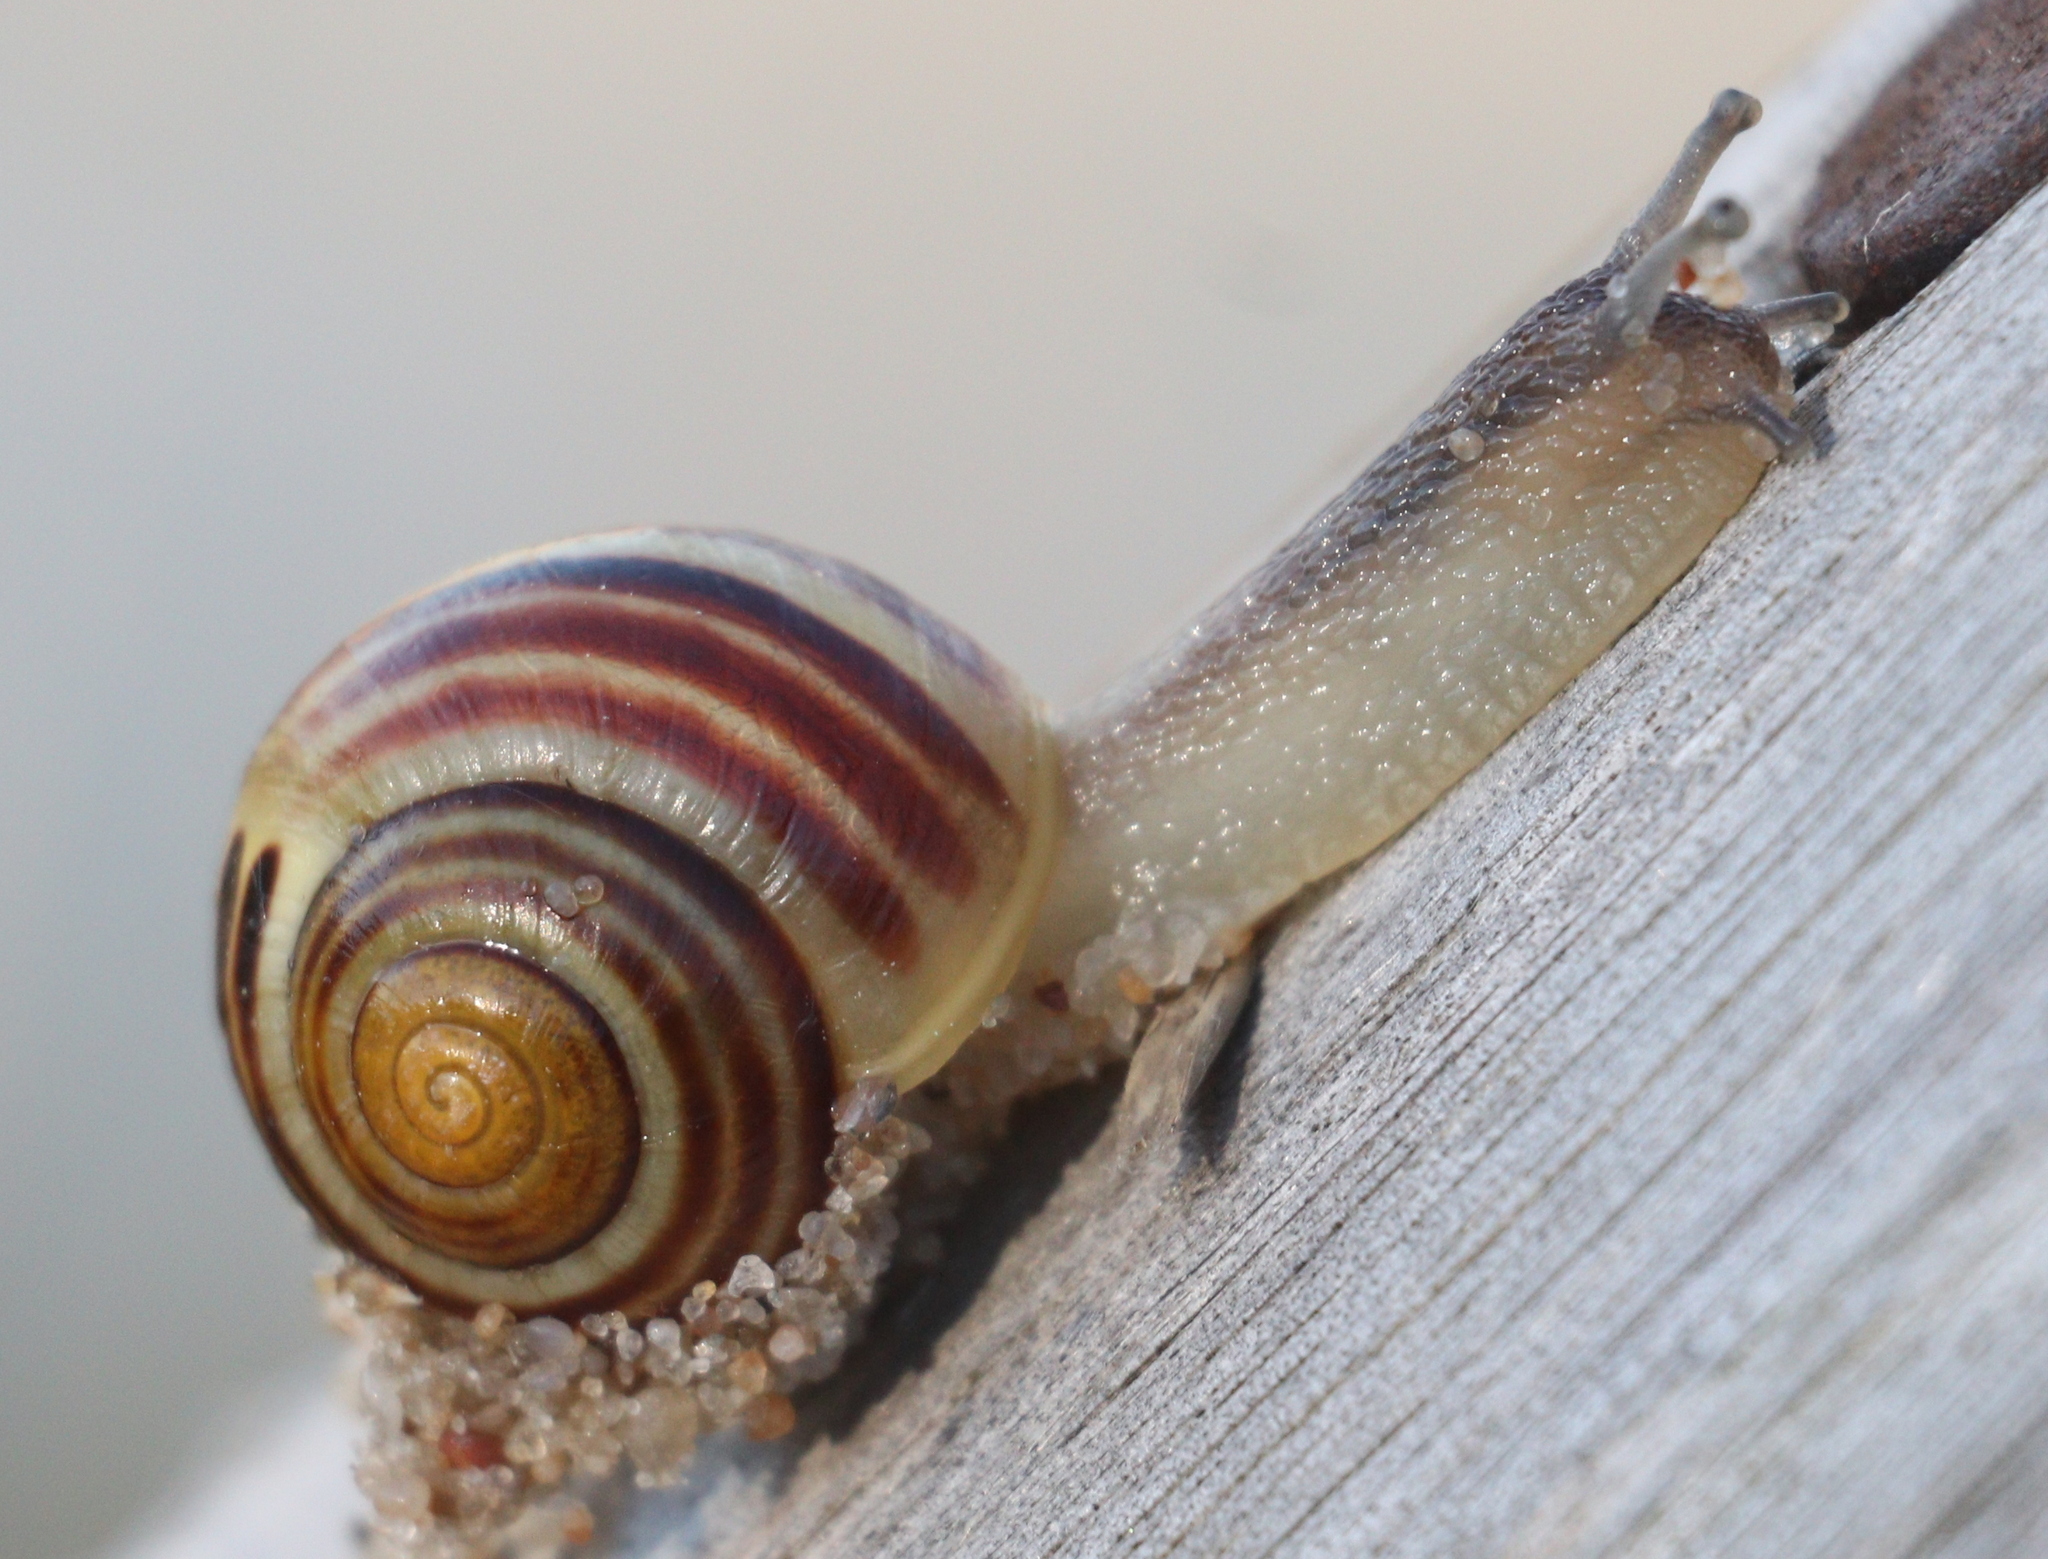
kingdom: Animalia
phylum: Mollusca
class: Gastropoda
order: Stylommatophora
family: Helicidae
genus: Cepaea
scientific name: Cepaea
